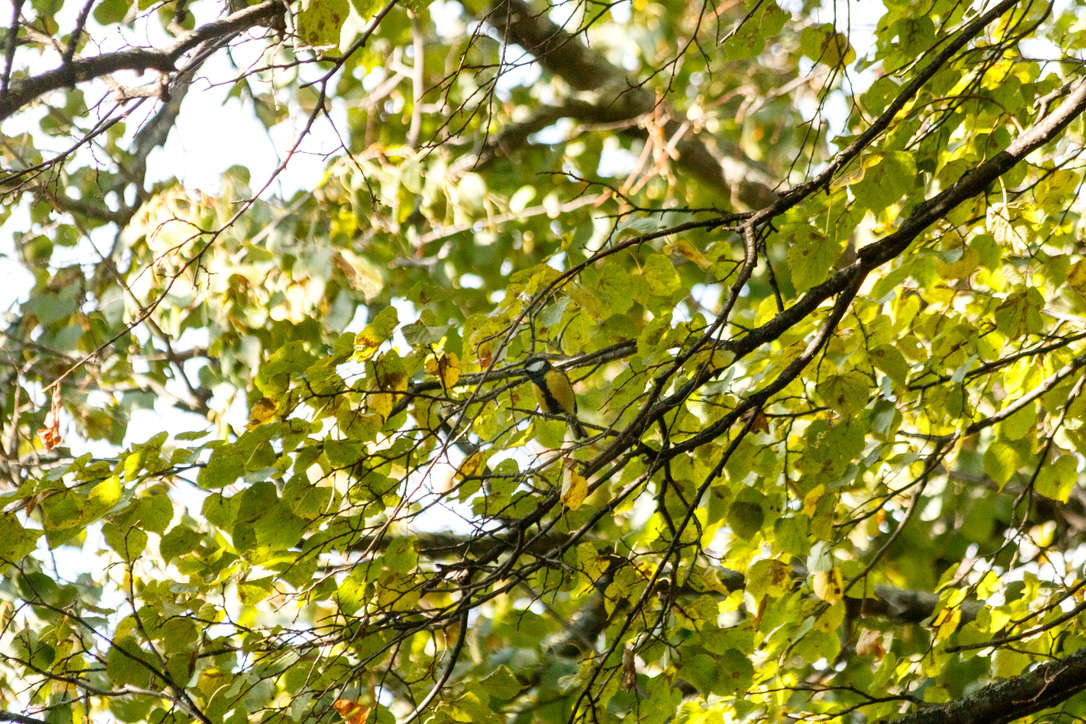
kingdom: Animalia
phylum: Chordata
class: Aves
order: Passeriformes
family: Paridae
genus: Parus
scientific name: Parus major
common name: Great tit
